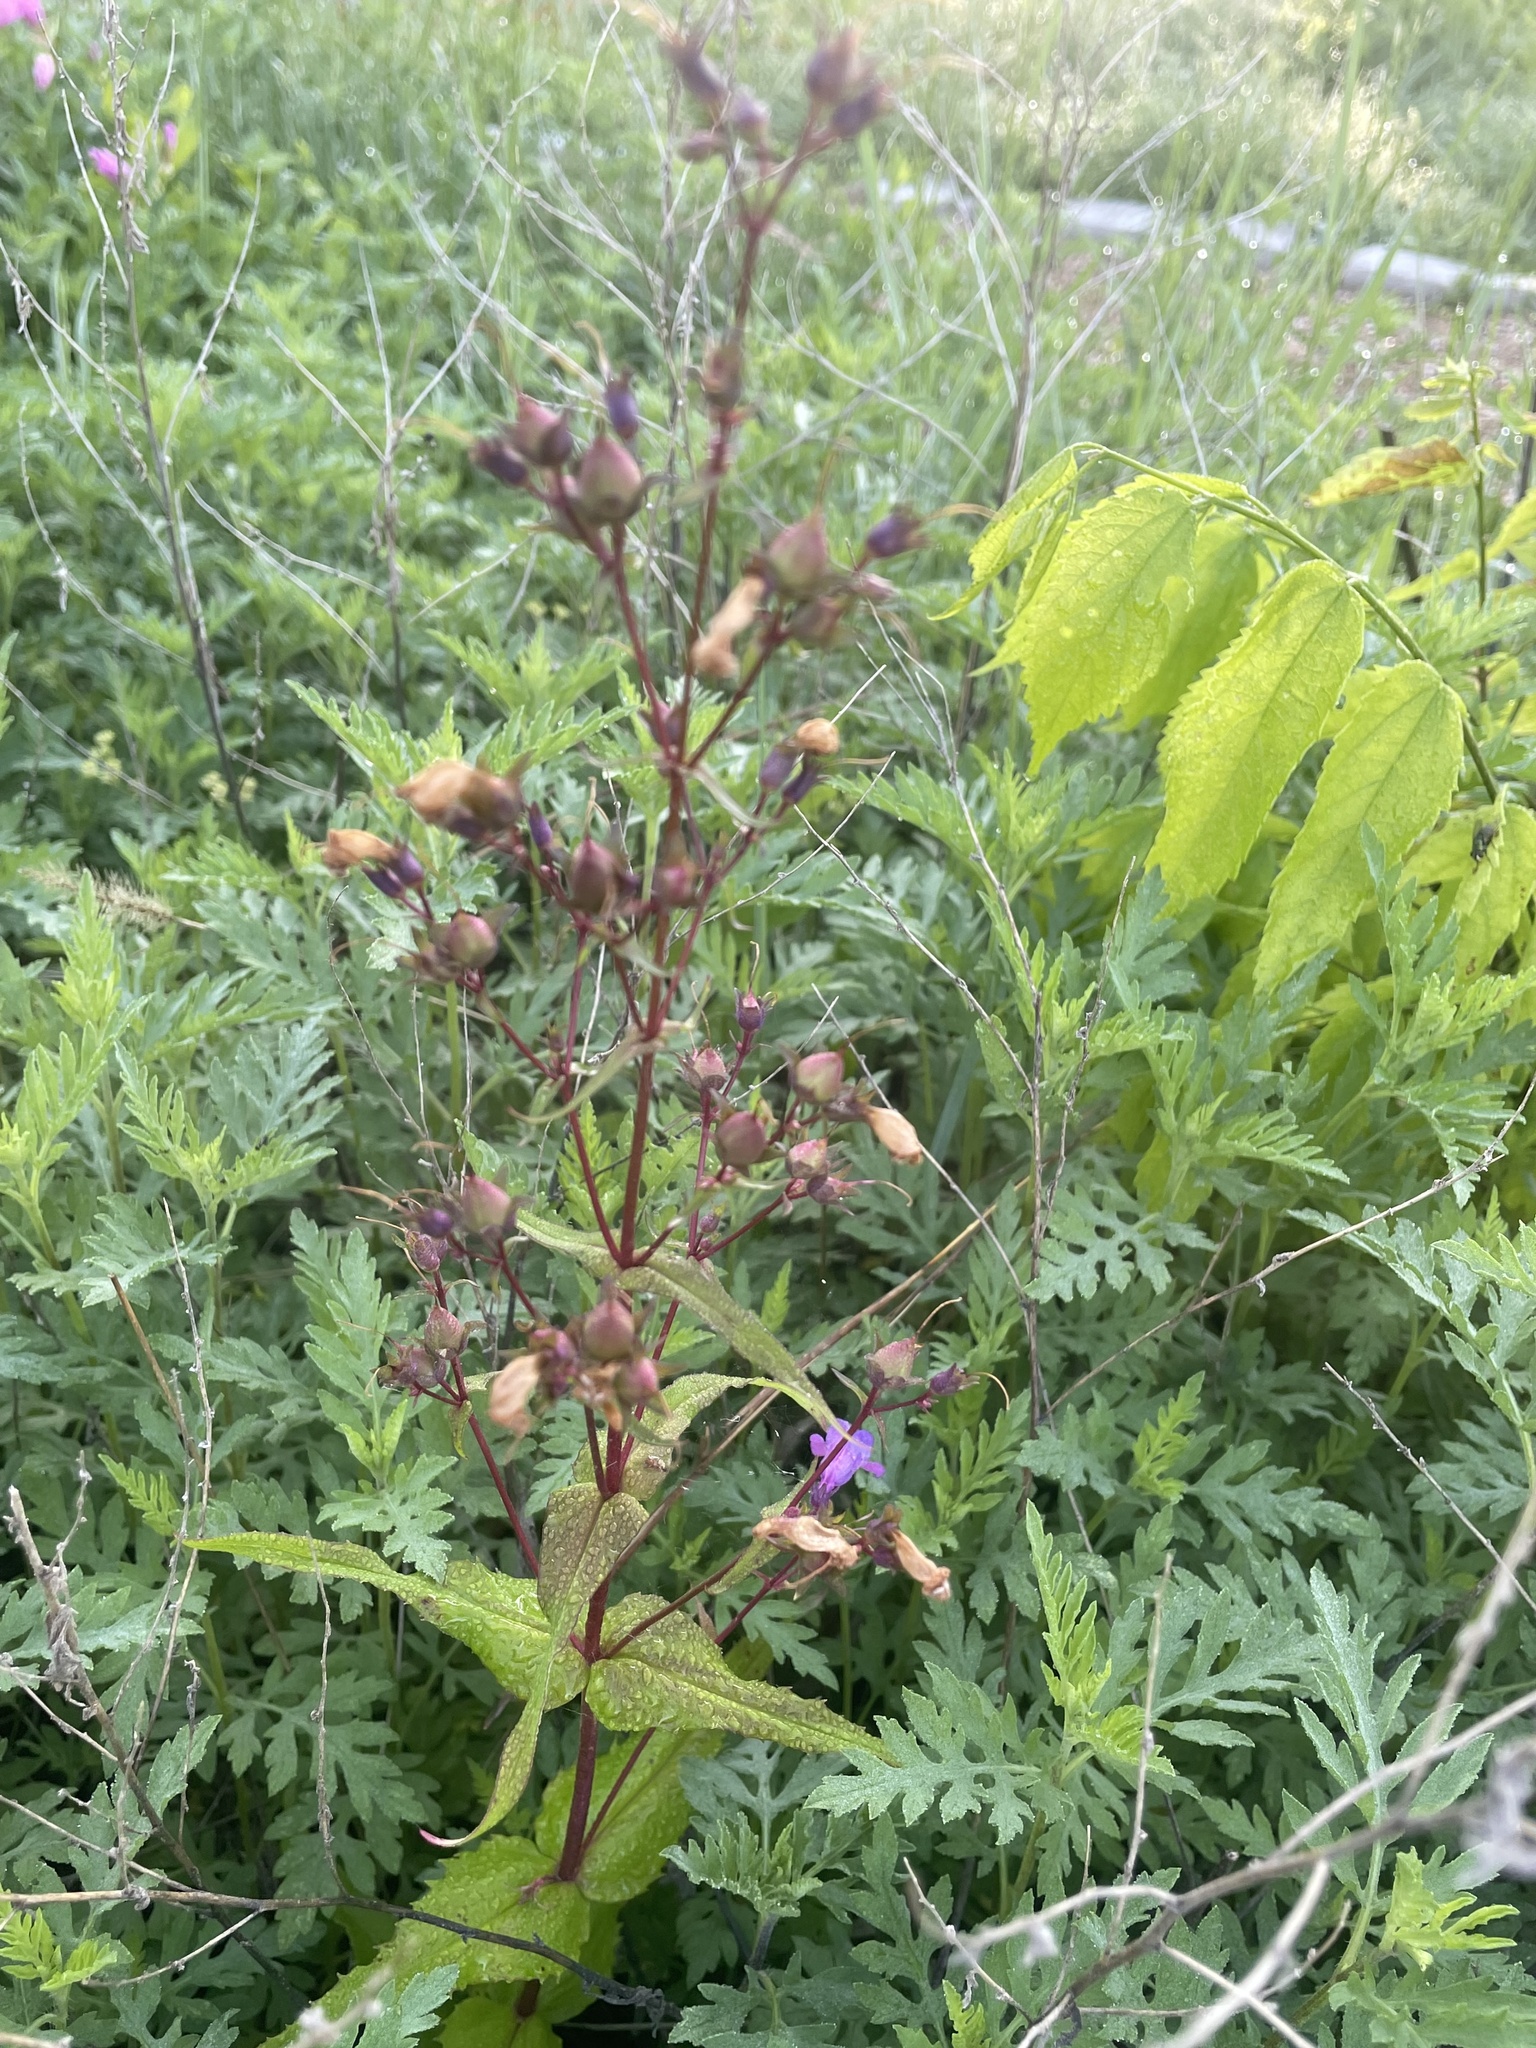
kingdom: Plantae
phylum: Tracheophyta
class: Magnoliopsida
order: Lamiales
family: Plantaginaceae
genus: Penstemon
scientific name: Penstemon tenuis
